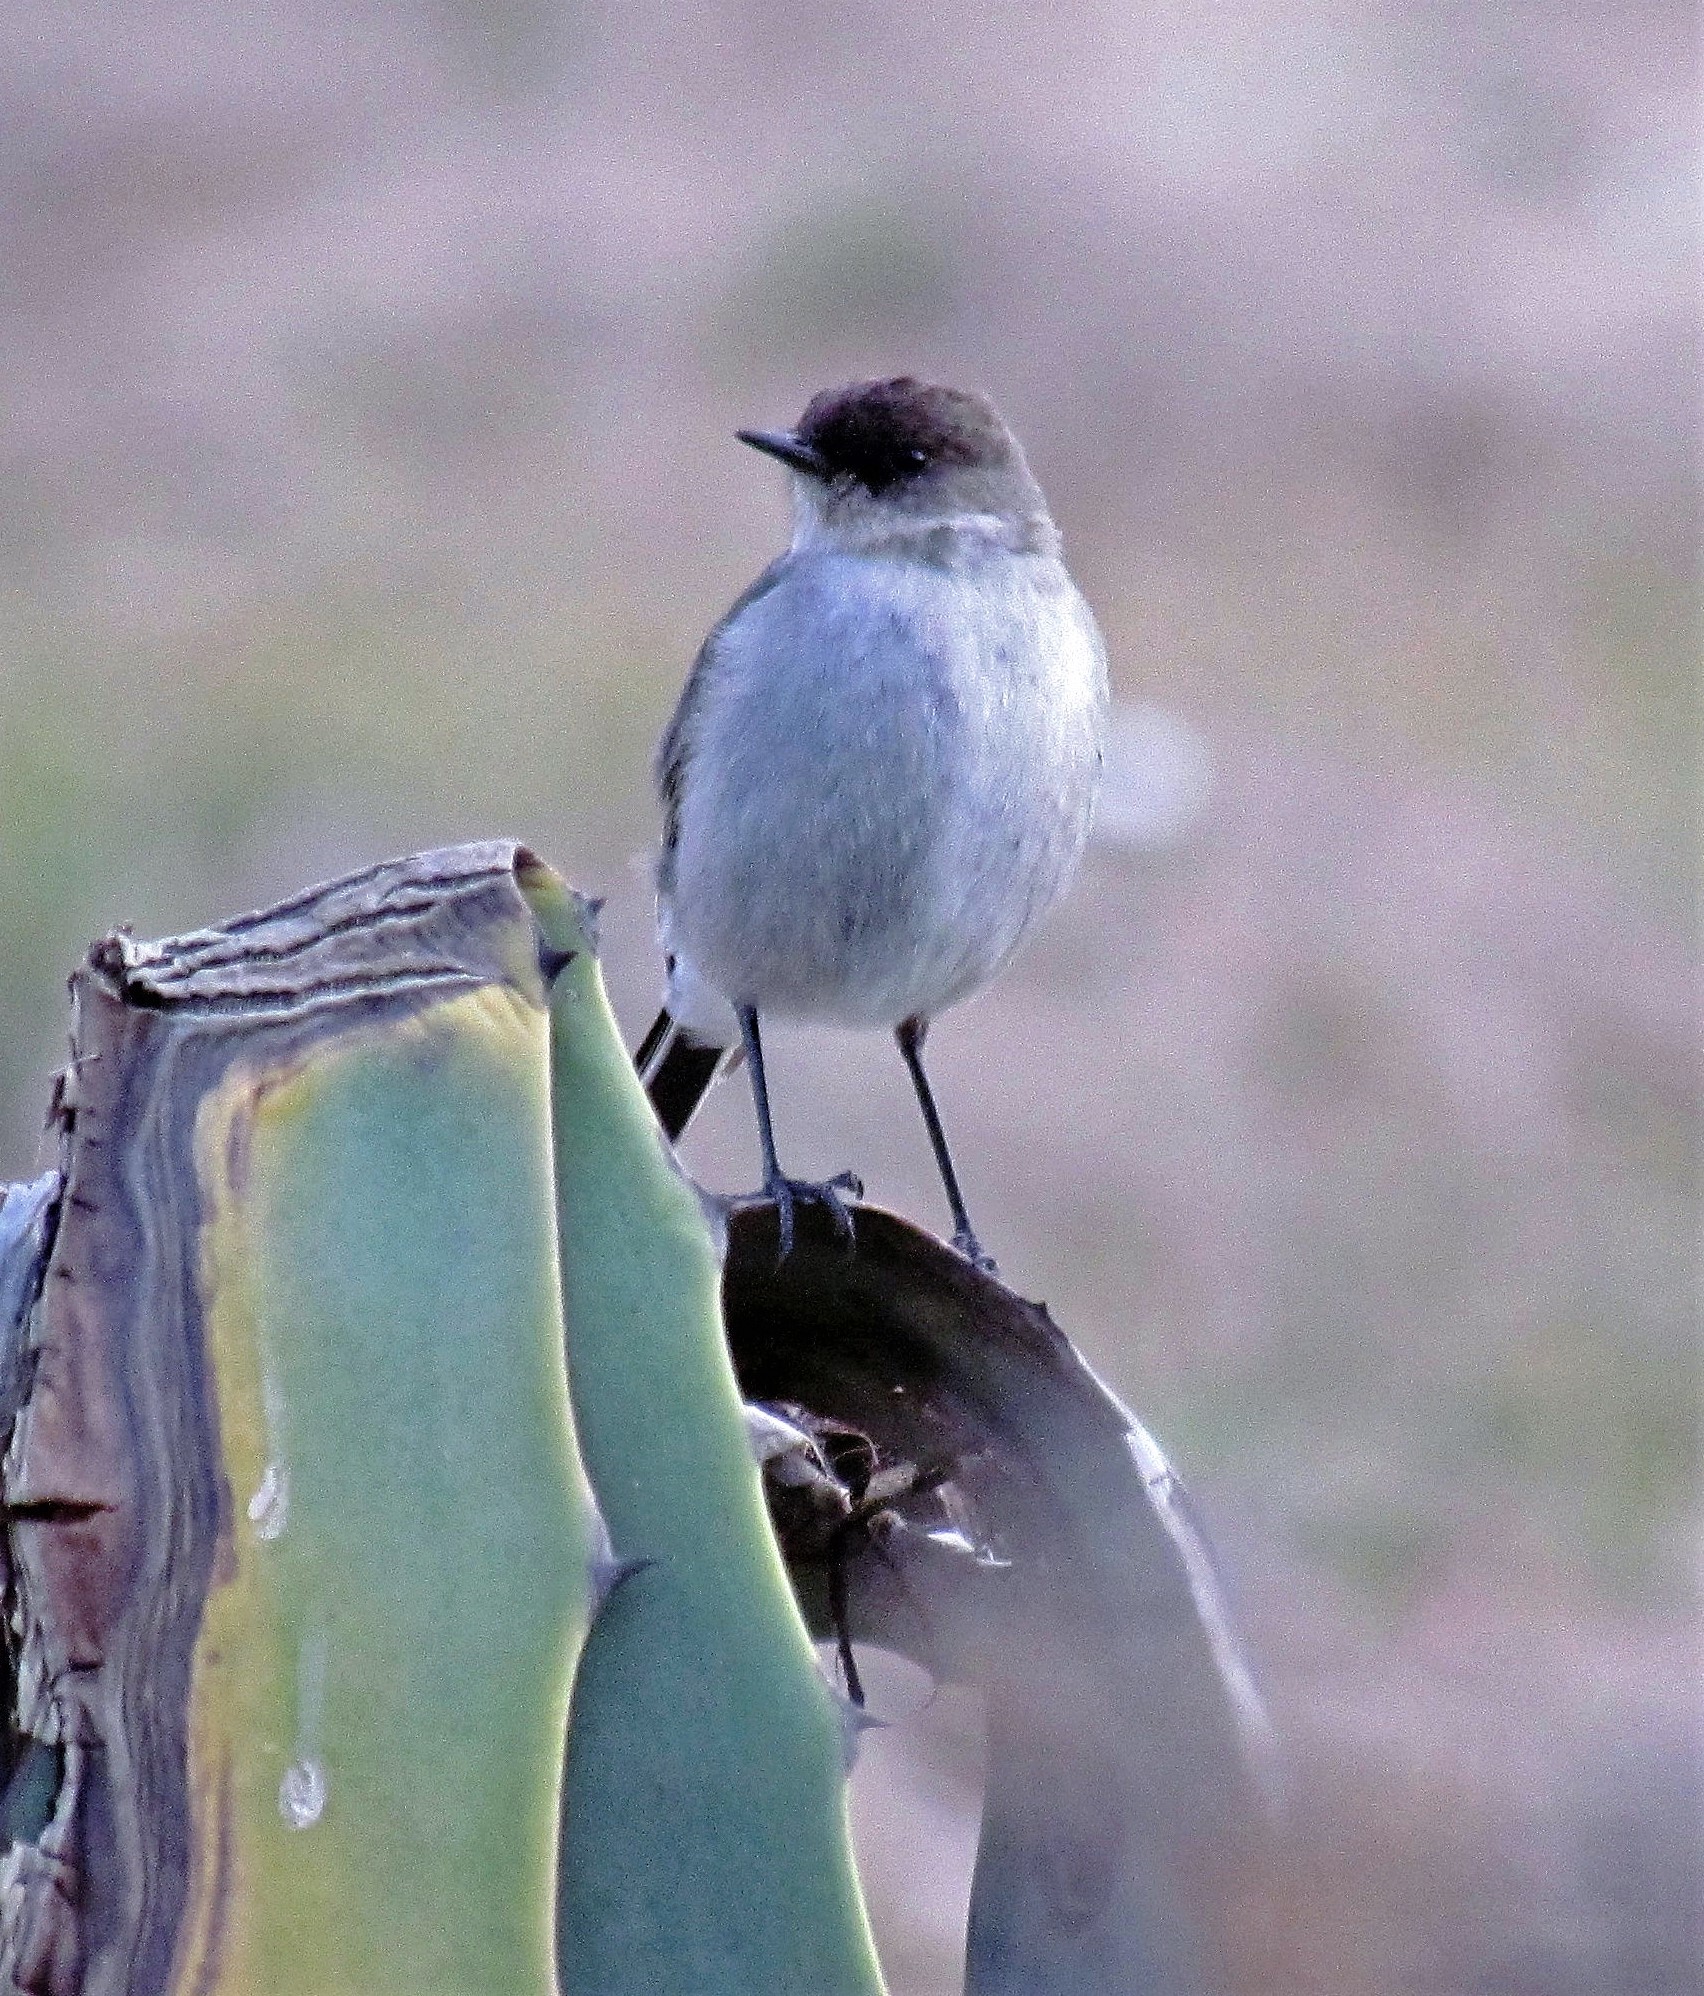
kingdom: Animalia
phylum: Chordata
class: Aves
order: Passeriformes
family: Tyrannidae
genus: Muscisaxicola
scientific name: Muscisaxicola maclovianus
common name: Dark-faced ground tyrant
